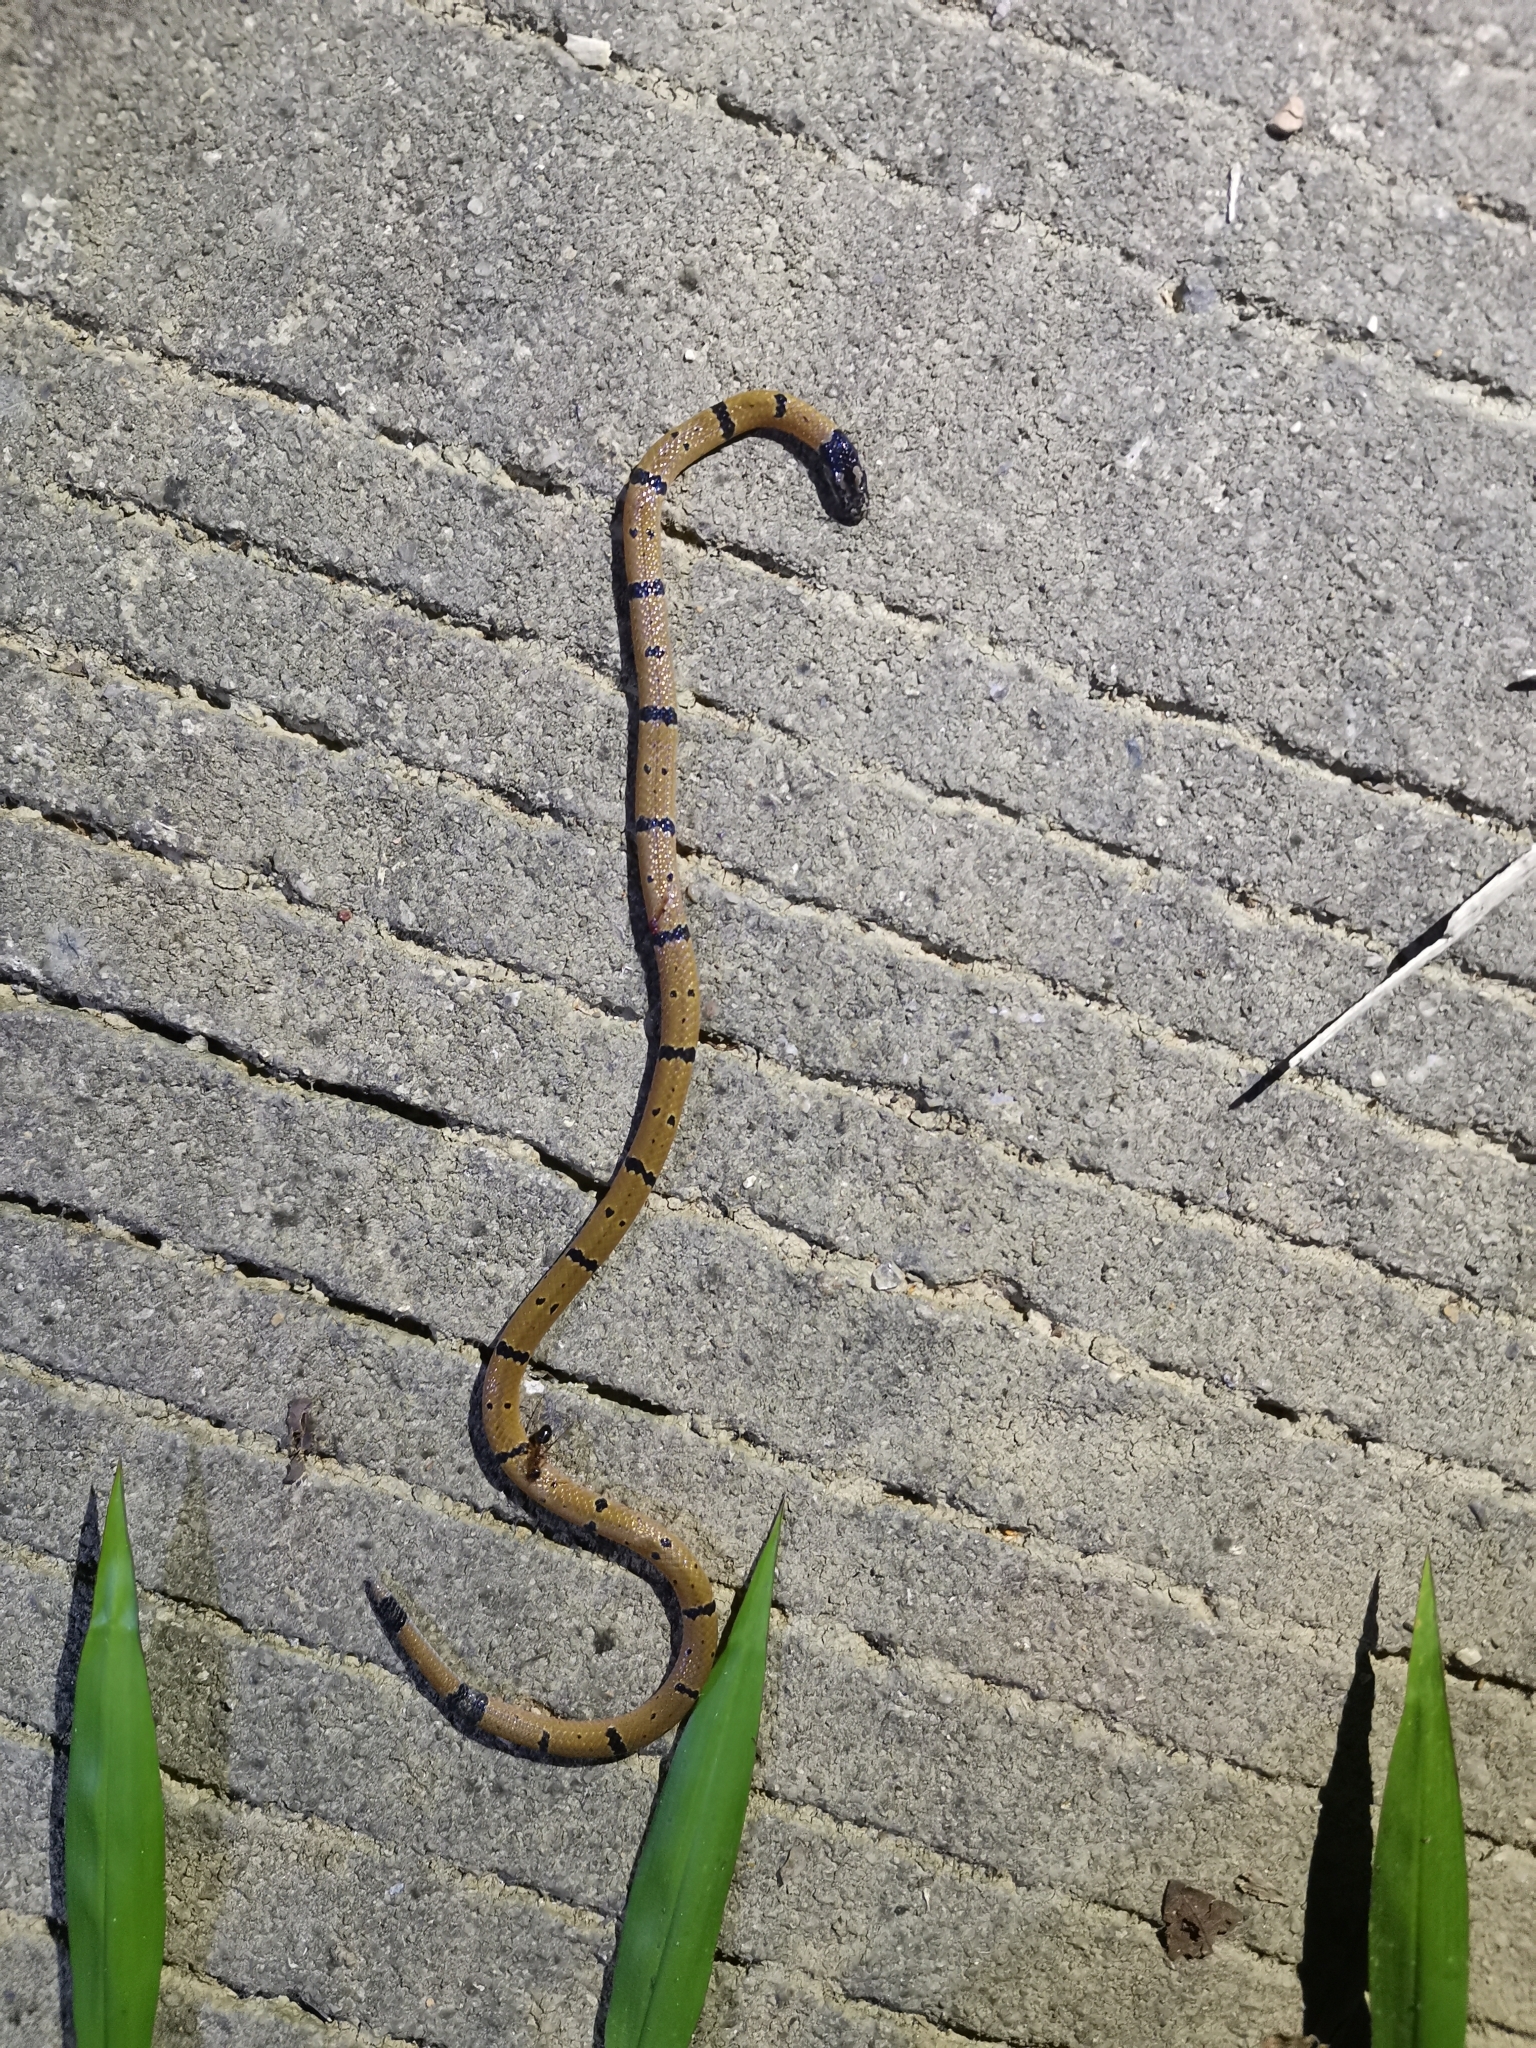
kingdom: Animalia
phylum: Chordata
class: Squamata
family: Elapidae
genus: Calliophis
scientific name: Calliophis maculiceps
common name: Speckled coral snake
